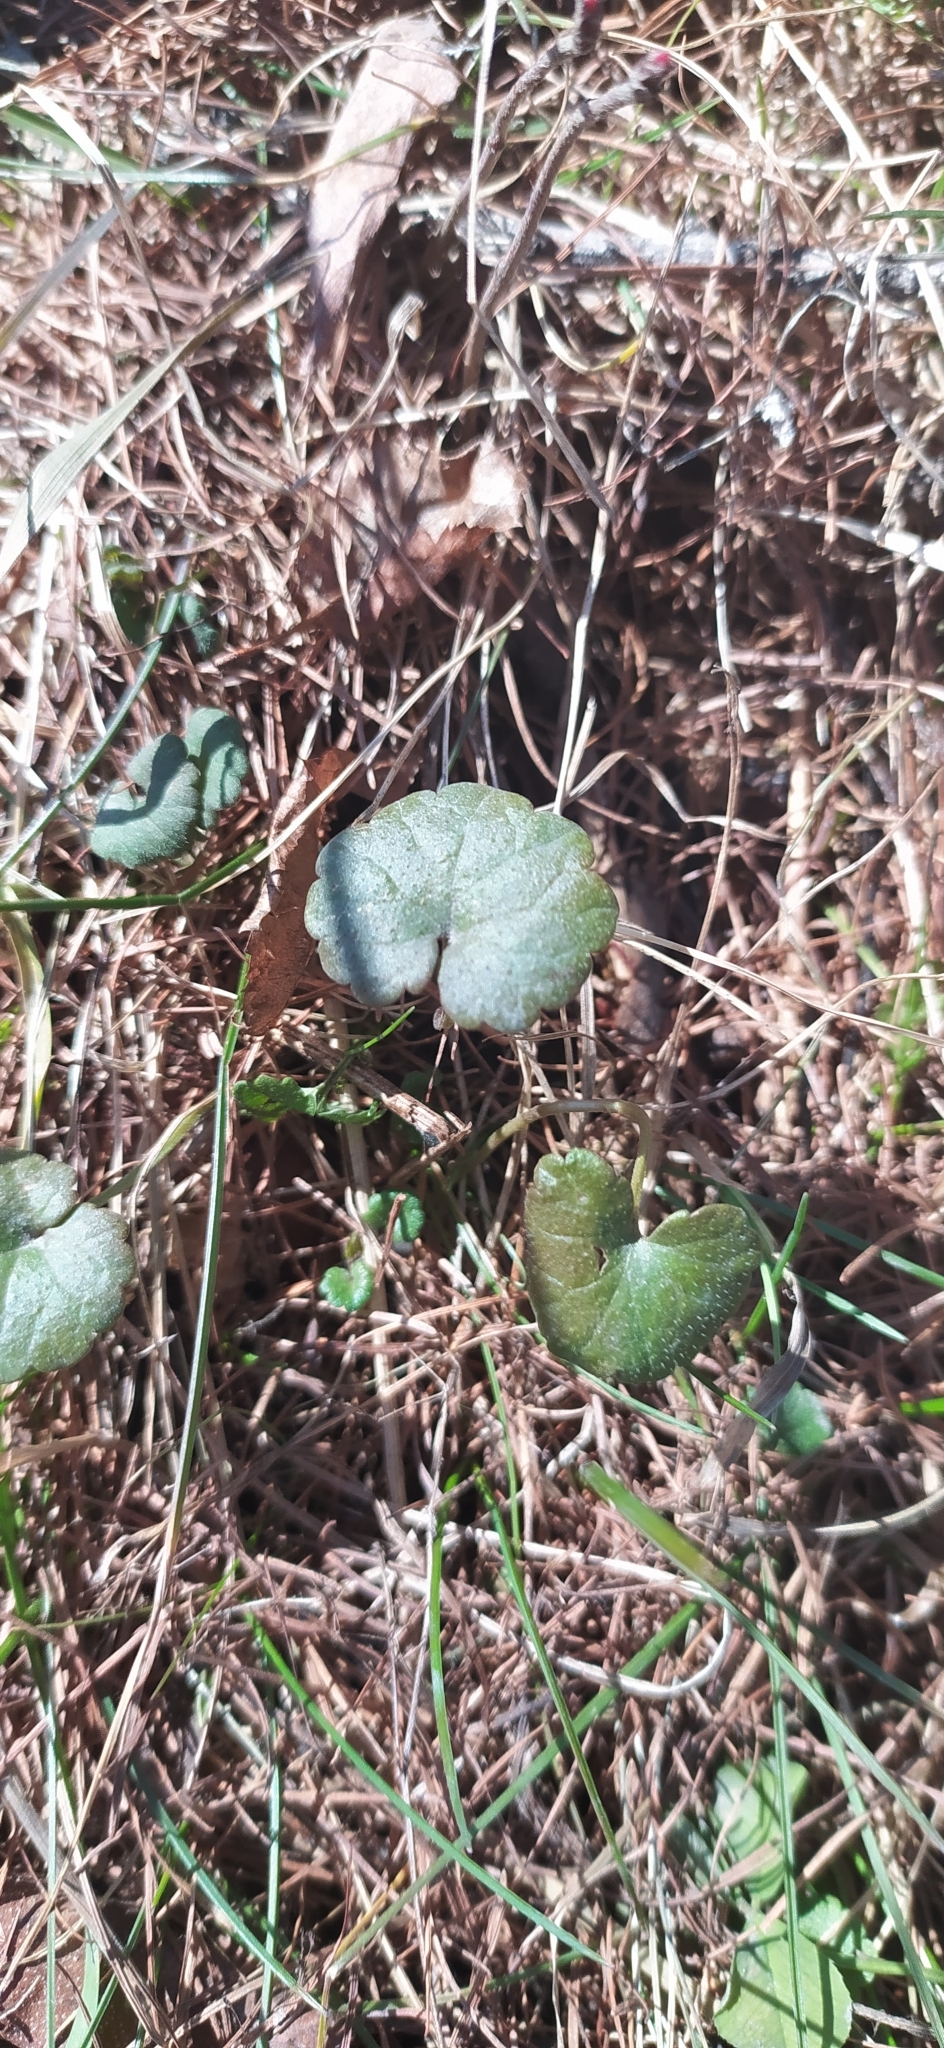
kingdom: Plantae
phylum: Tracheophyta
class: Magnoliopsida
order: Lamiales
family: Lamiaceae
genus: Glechoma
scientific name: Glechoma hederacea
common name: Ground ivy
